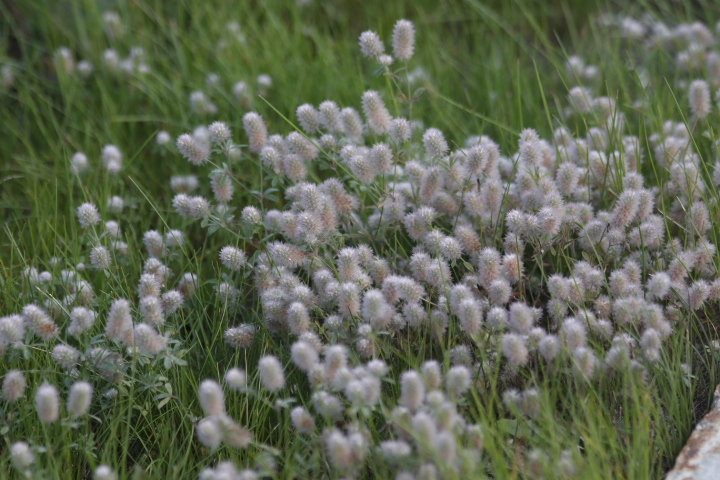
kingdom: Plantae
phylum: Tracheophyta
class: Magnoliopsida
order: Fabales
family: Fabaceae
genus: Trifolium
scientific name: Trifolium arvense
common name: Hare's-foot clover
